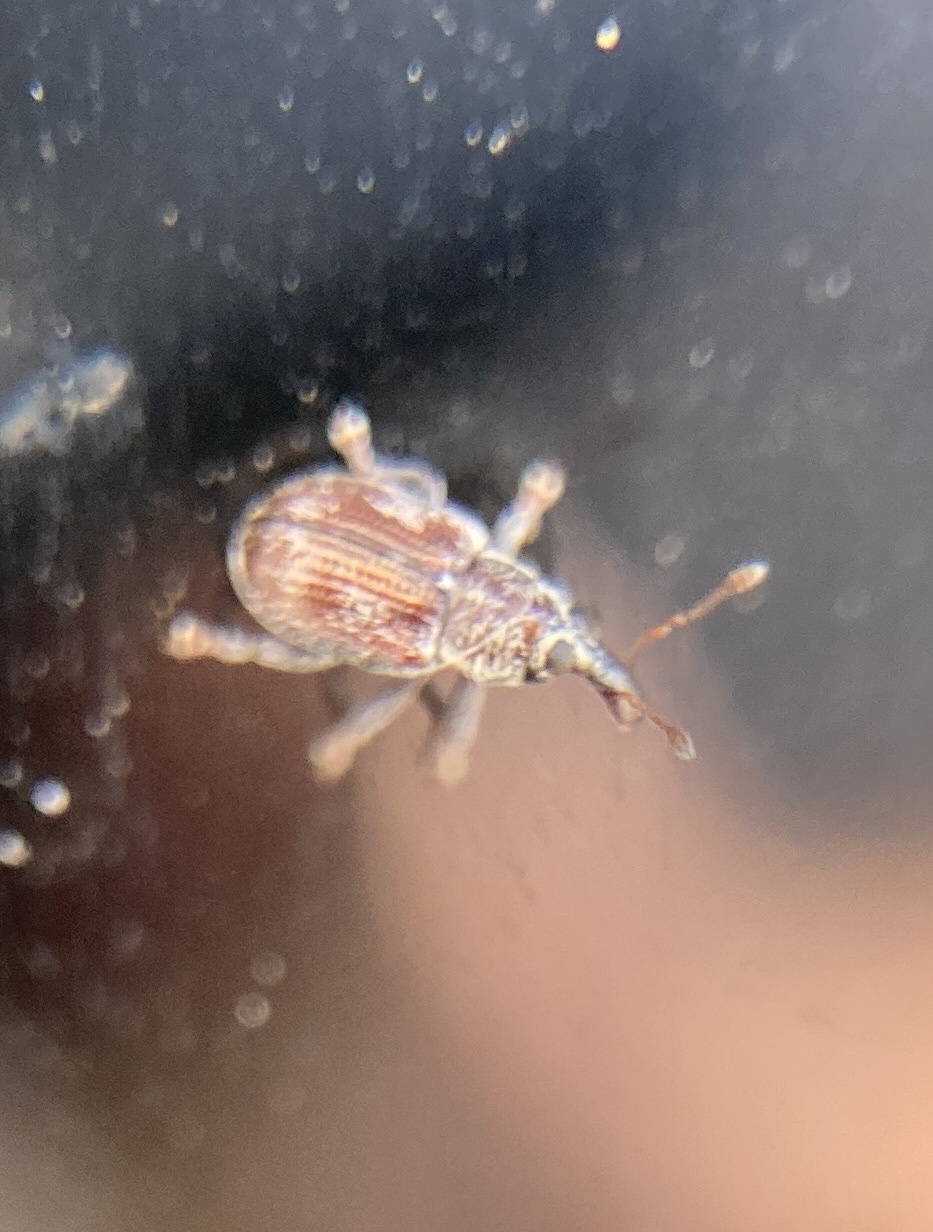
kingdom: Animalia
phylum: Arthropoda
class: Insecta
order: Coleoptera
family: Curculionidae
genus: Neomycta
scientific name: Neomycta rubida
